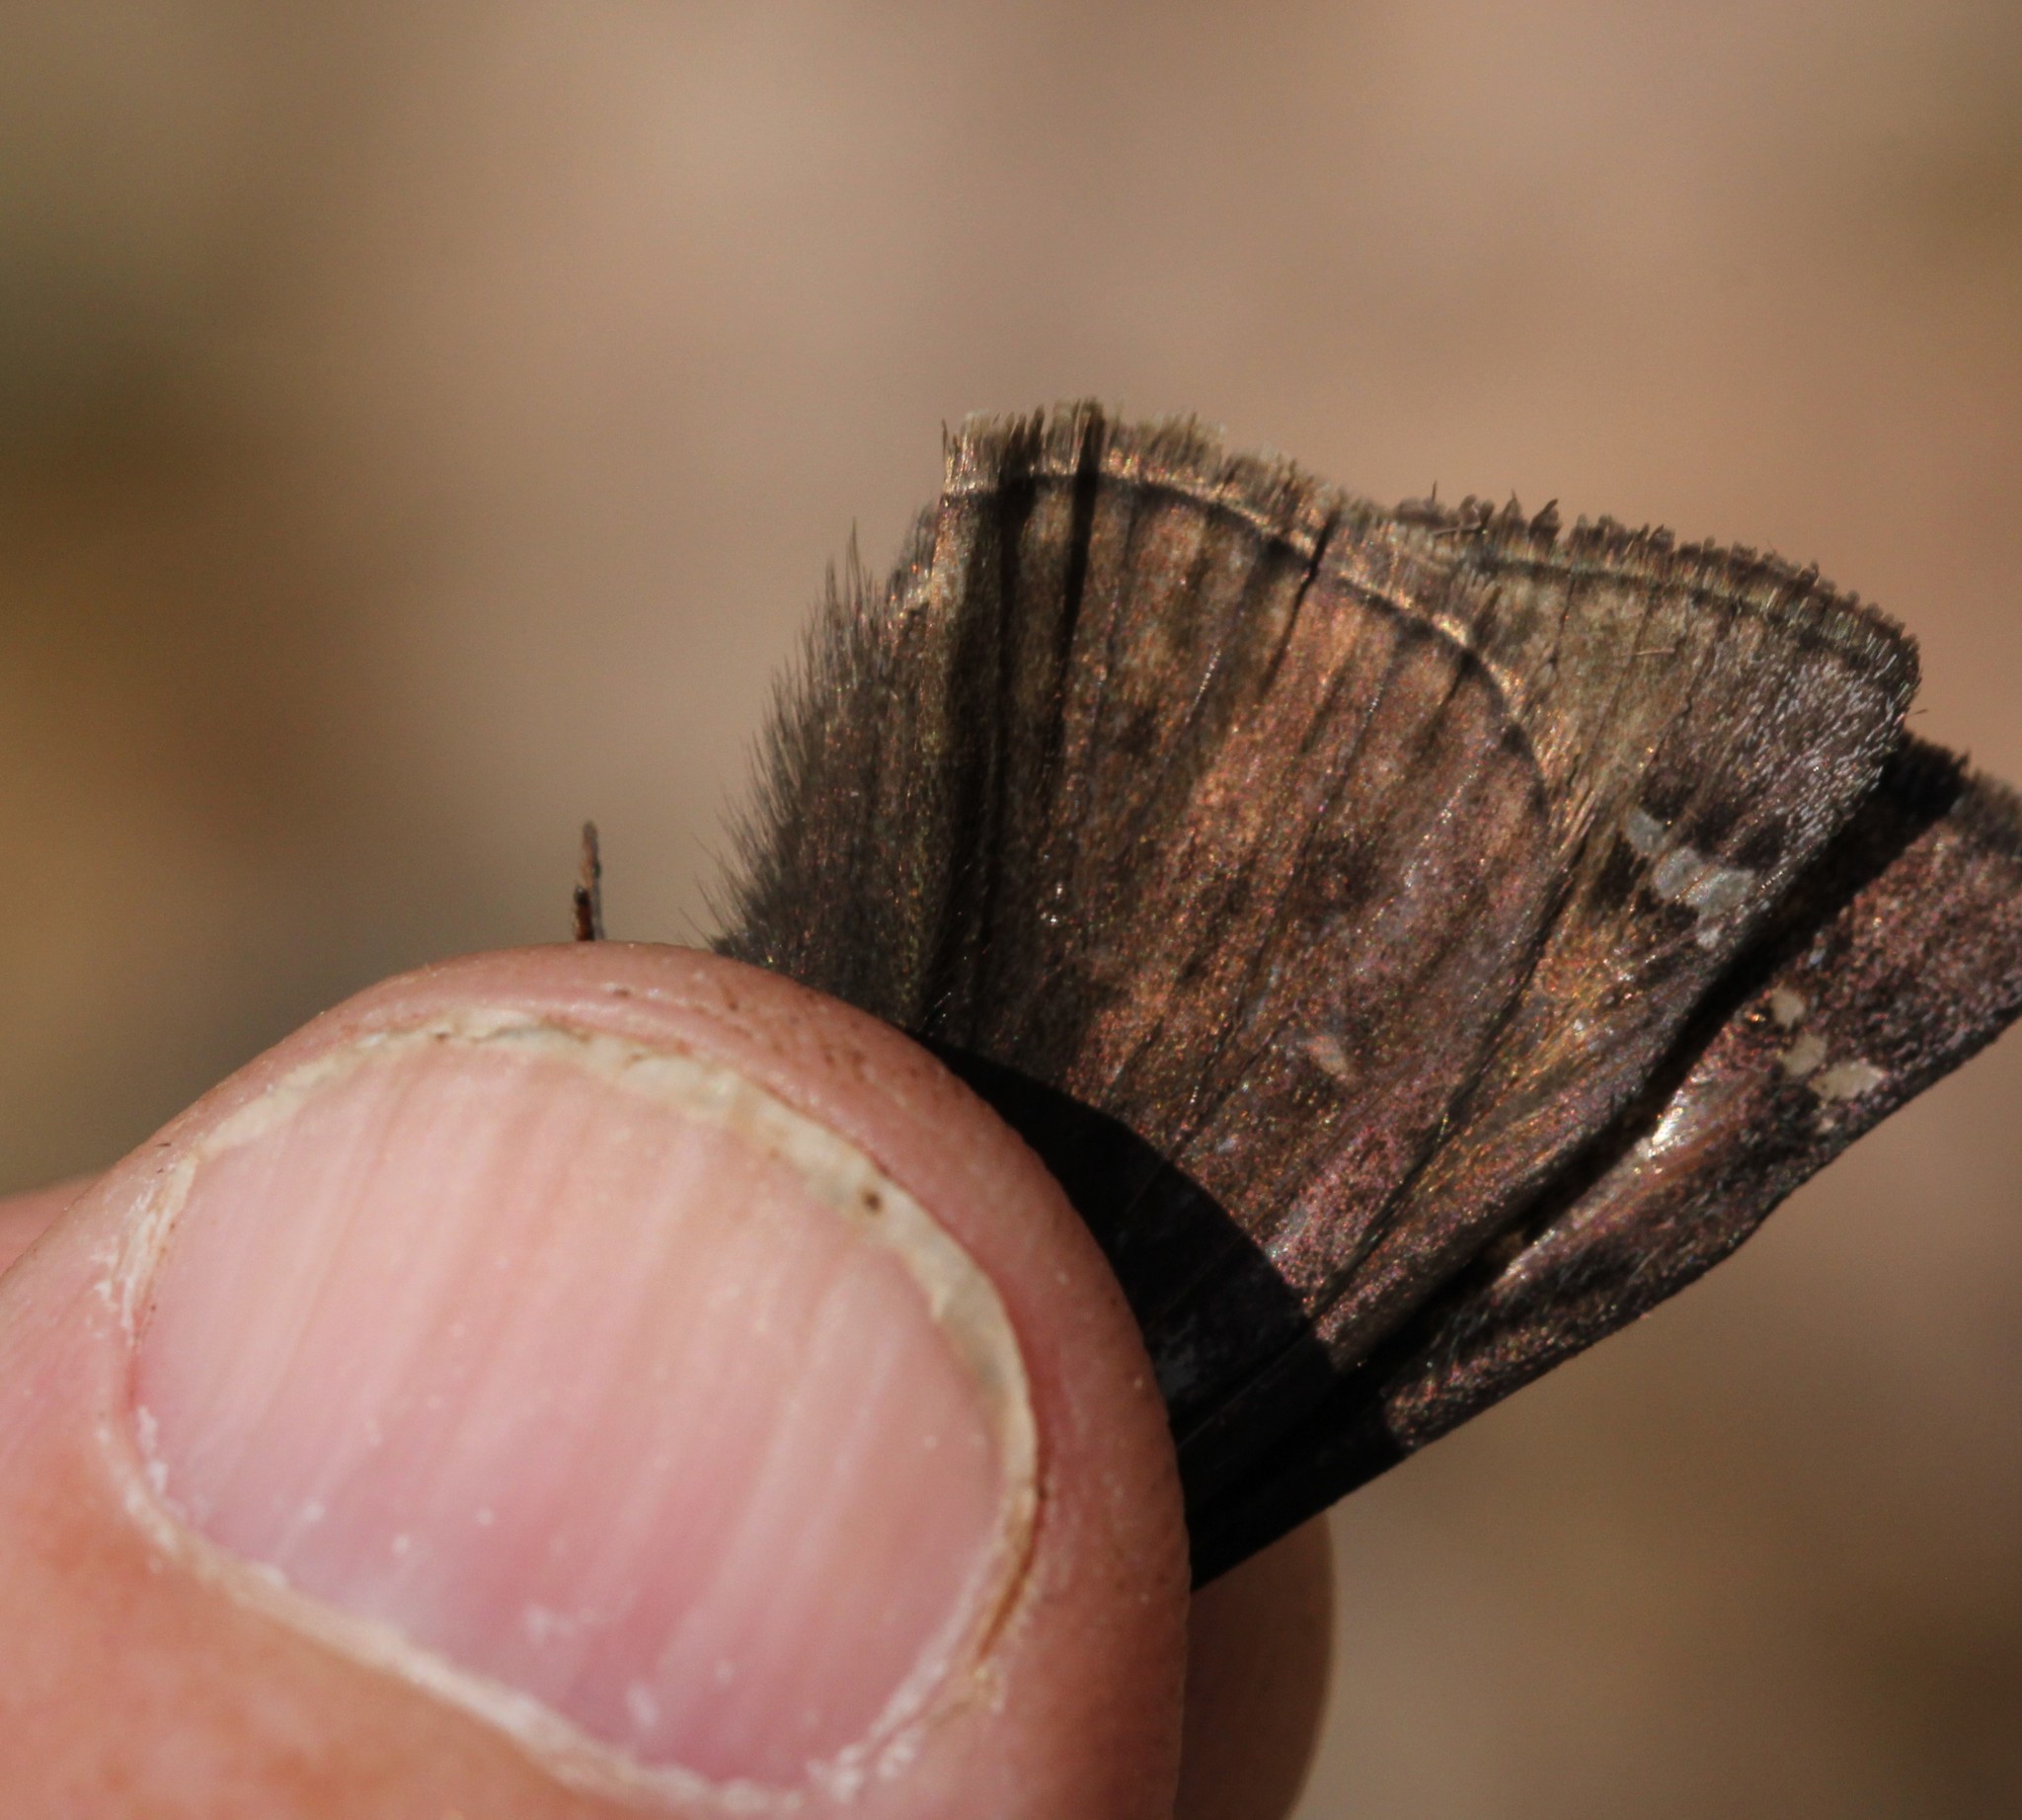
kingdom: Animalia
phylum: Arthropoda
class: Insecta
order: Lepidoptera
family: Hesperiidae
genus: Erynnis
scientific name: Erynnis juvenalis
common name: Juvenal's duskywing
